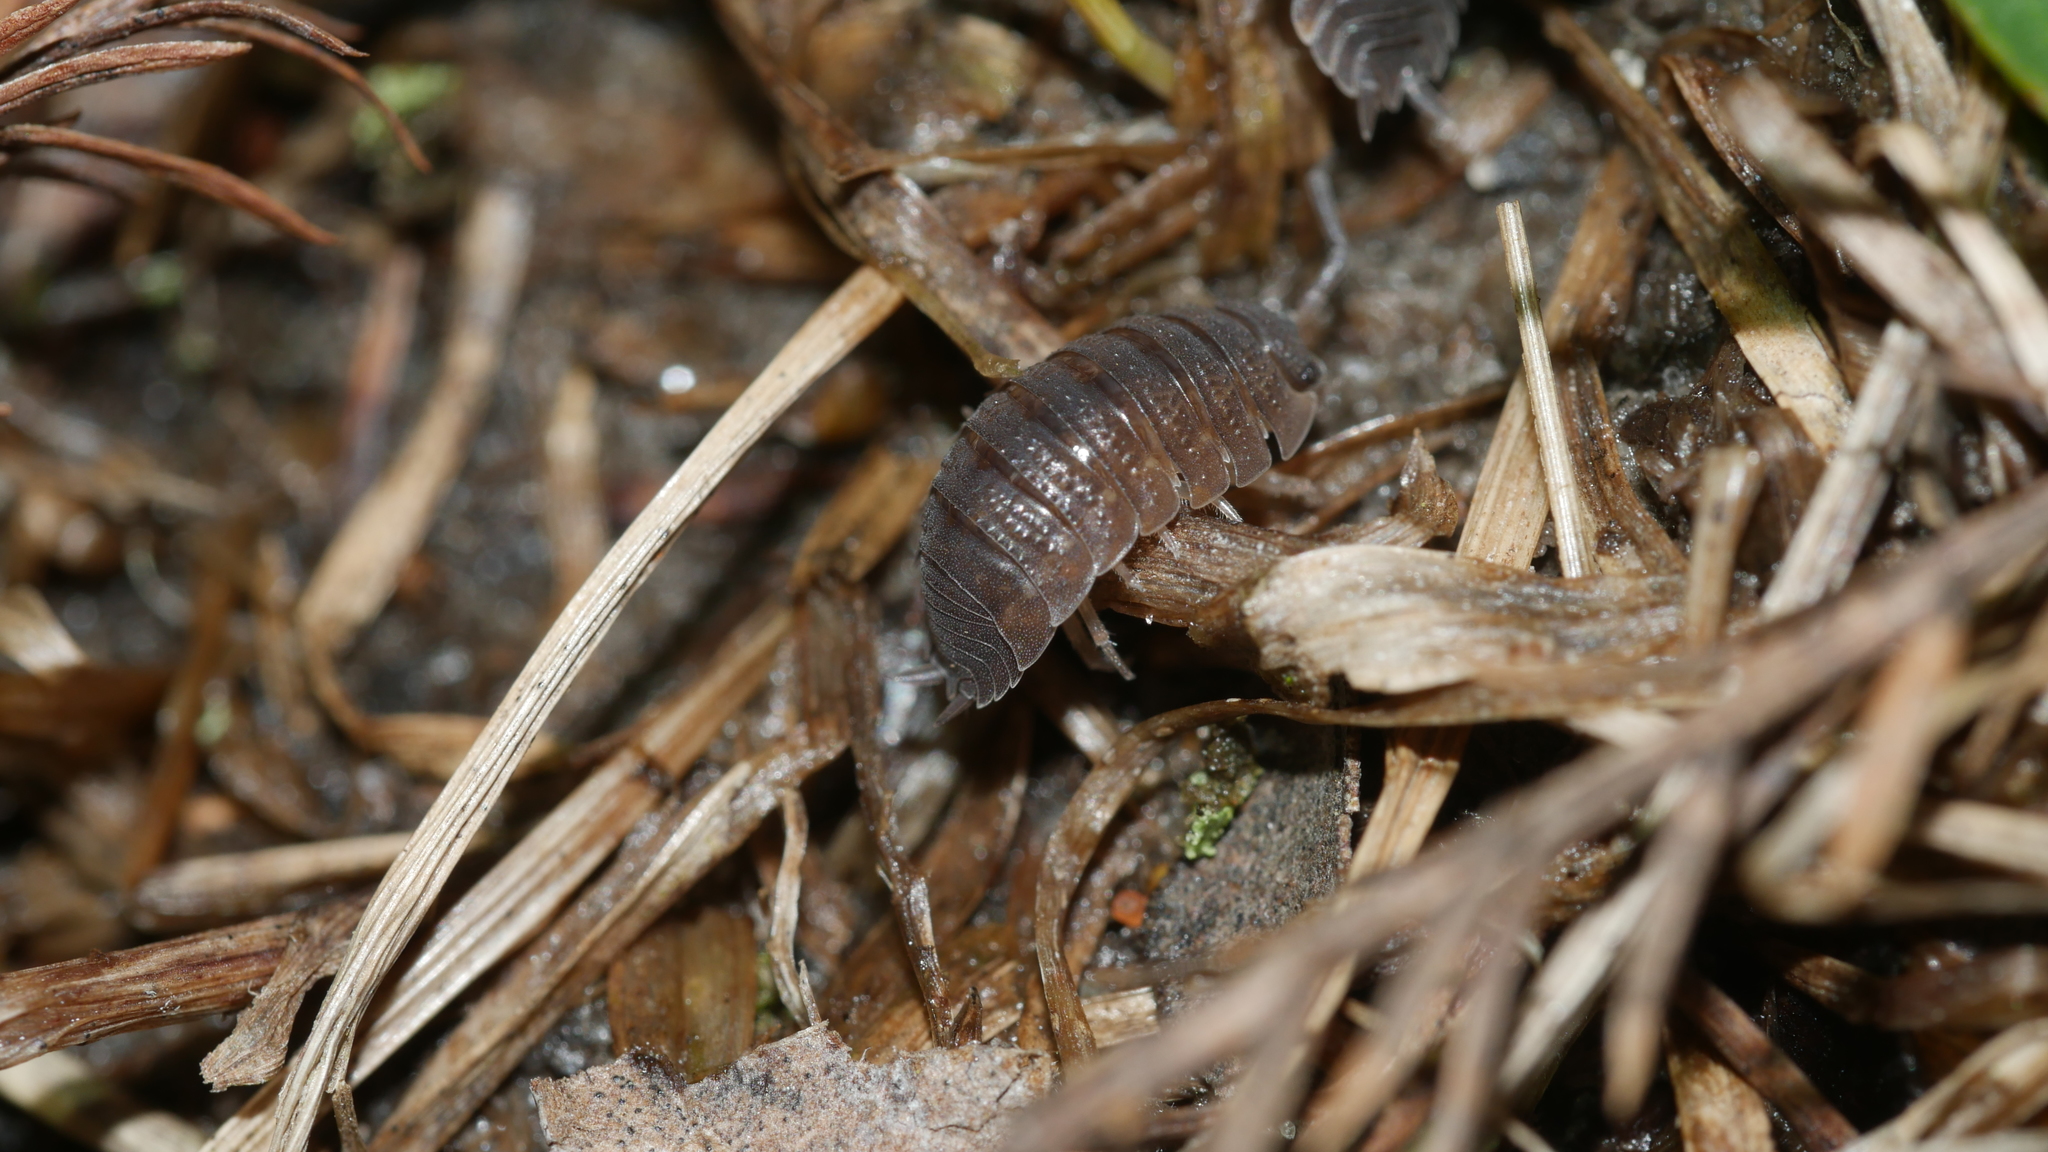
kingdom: Animalia
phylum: Arthropoda
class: Malacostraca
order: Isopoda
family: Porcellionidae
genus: Porcellio
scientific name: Porcellio scaber
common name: Common rough woodlouse
